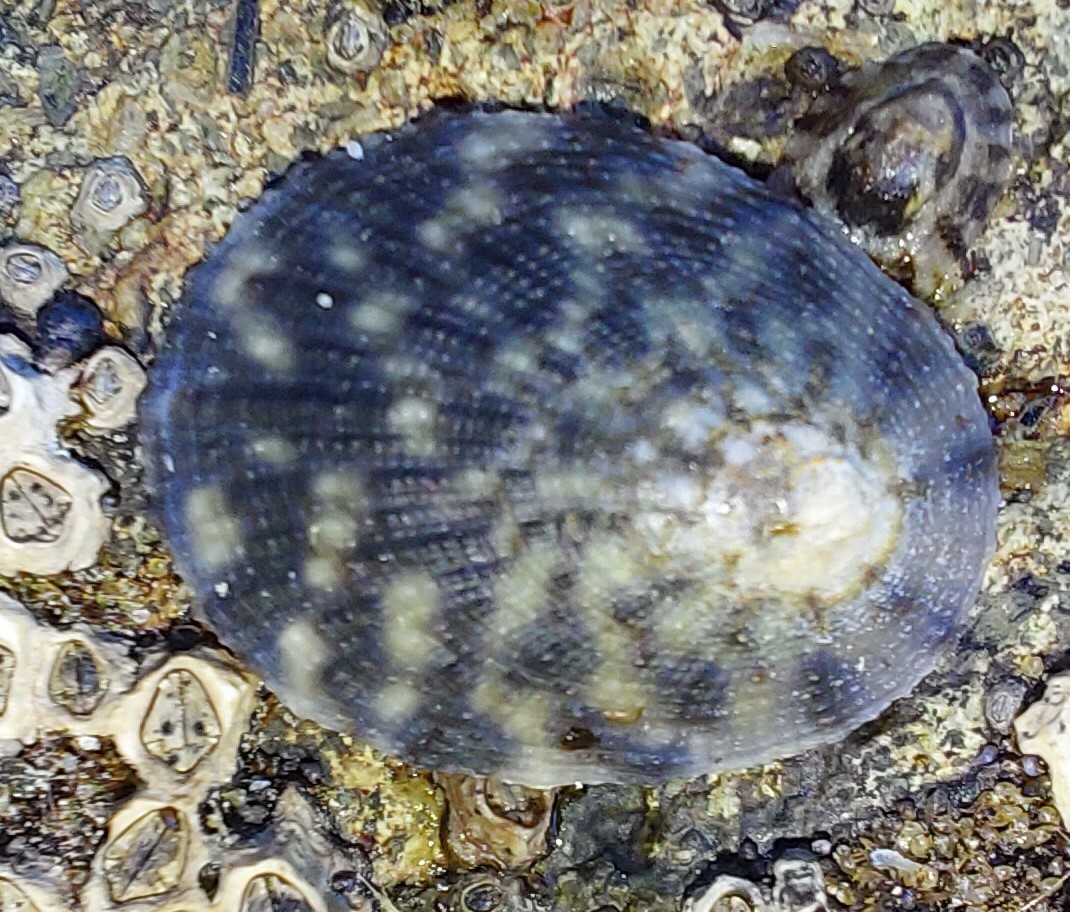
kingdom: Animalia
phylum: Mollusca
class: Gastropoda
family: Nacellidae
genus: Cellana
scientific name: Cellana radians
